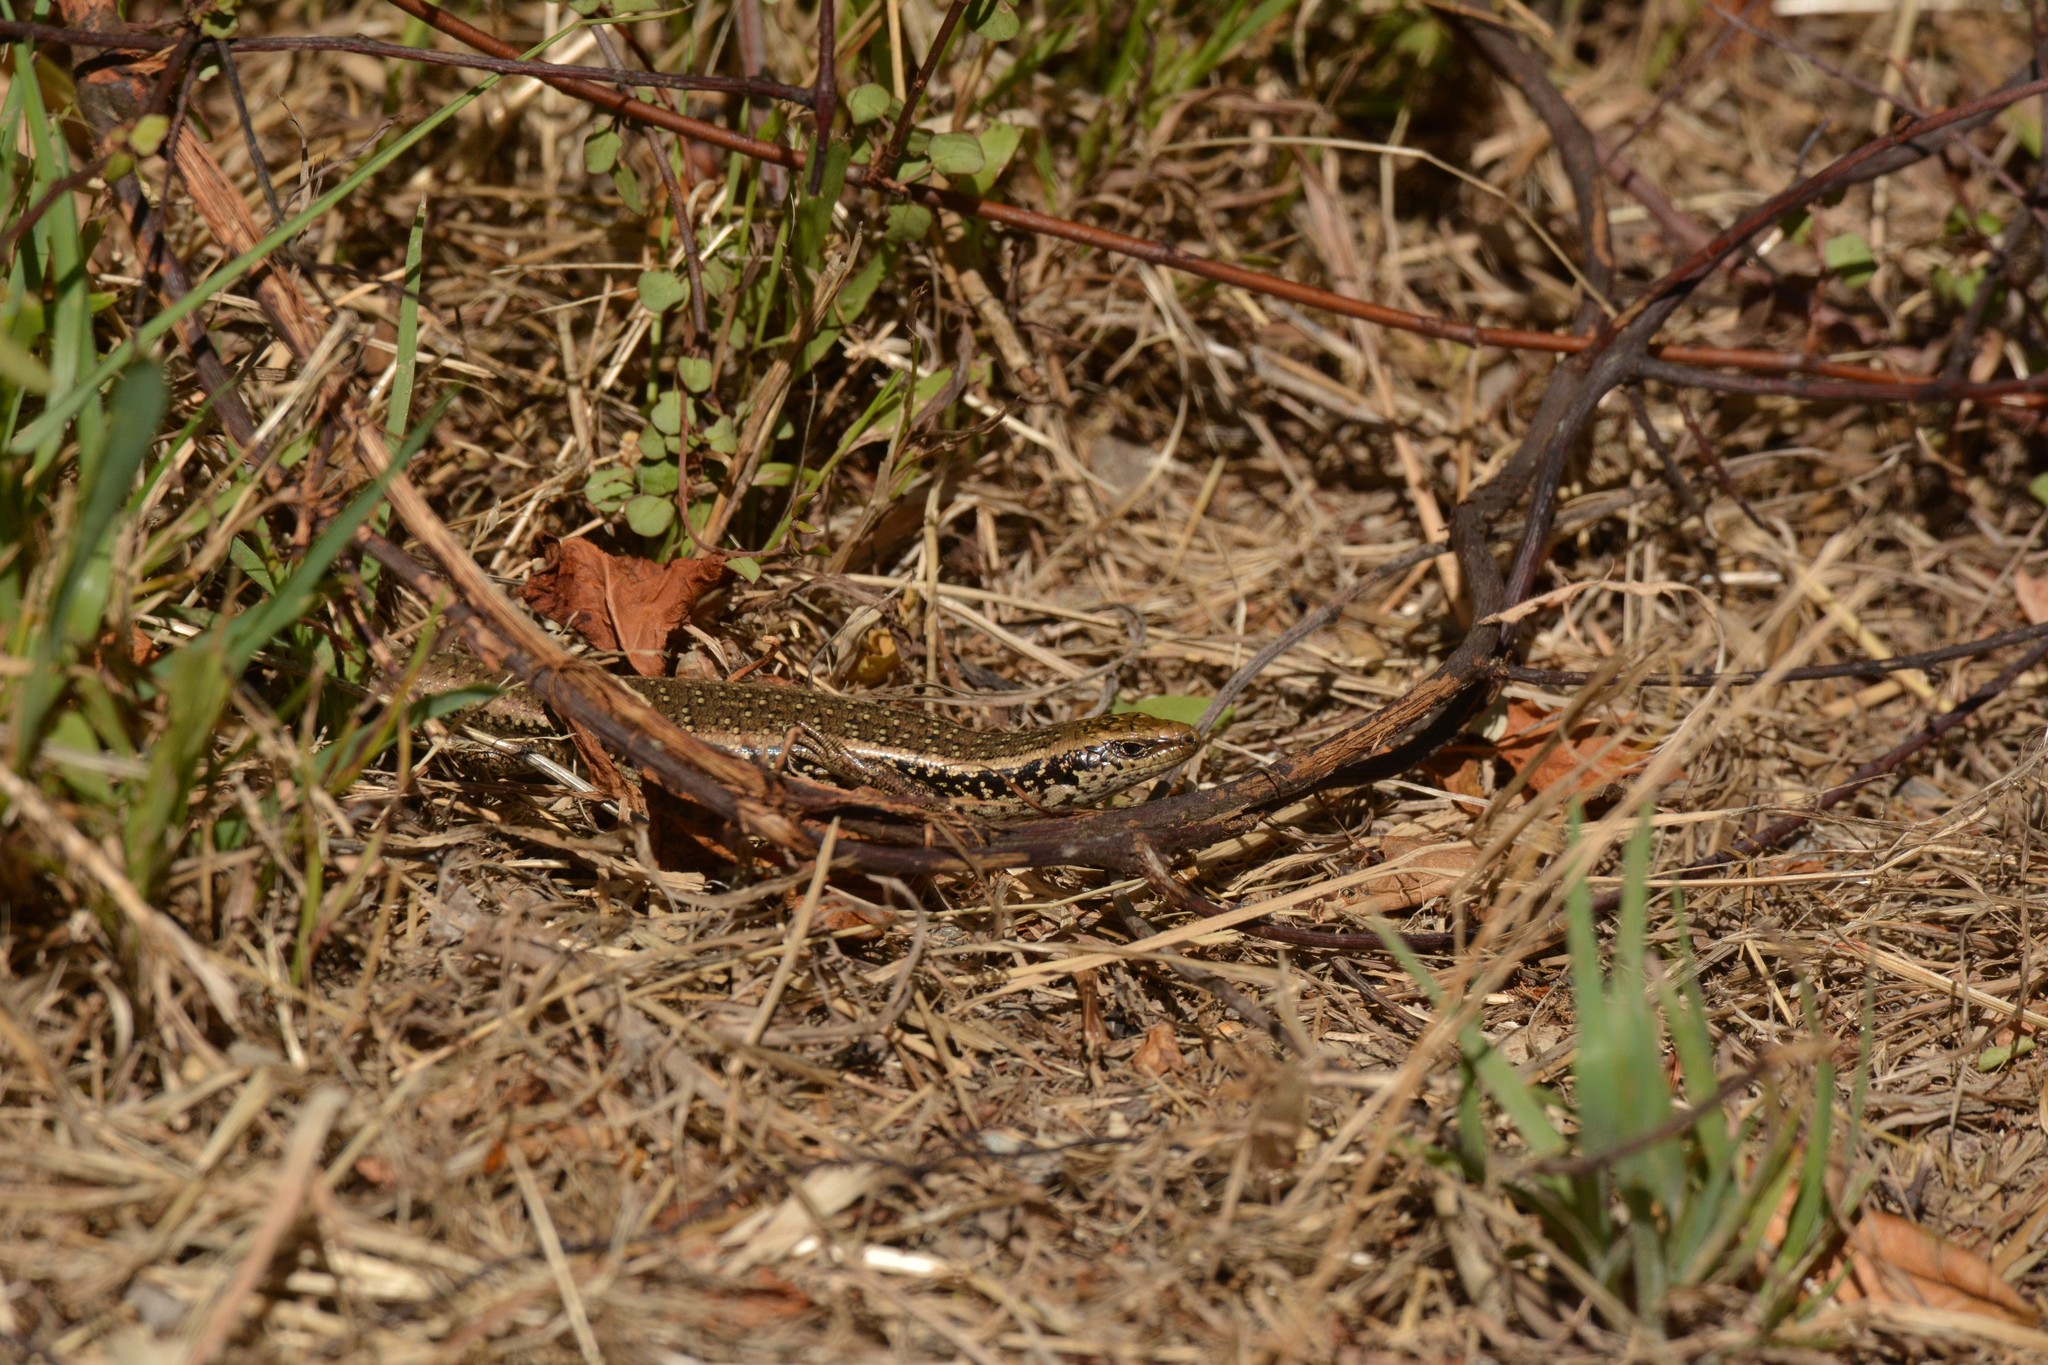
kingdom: Animalia
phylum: Chordata
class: Squamata
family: Scincidae
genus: Oligosoma
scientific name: Oligosoma kokowai
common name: Northern spotted skink
